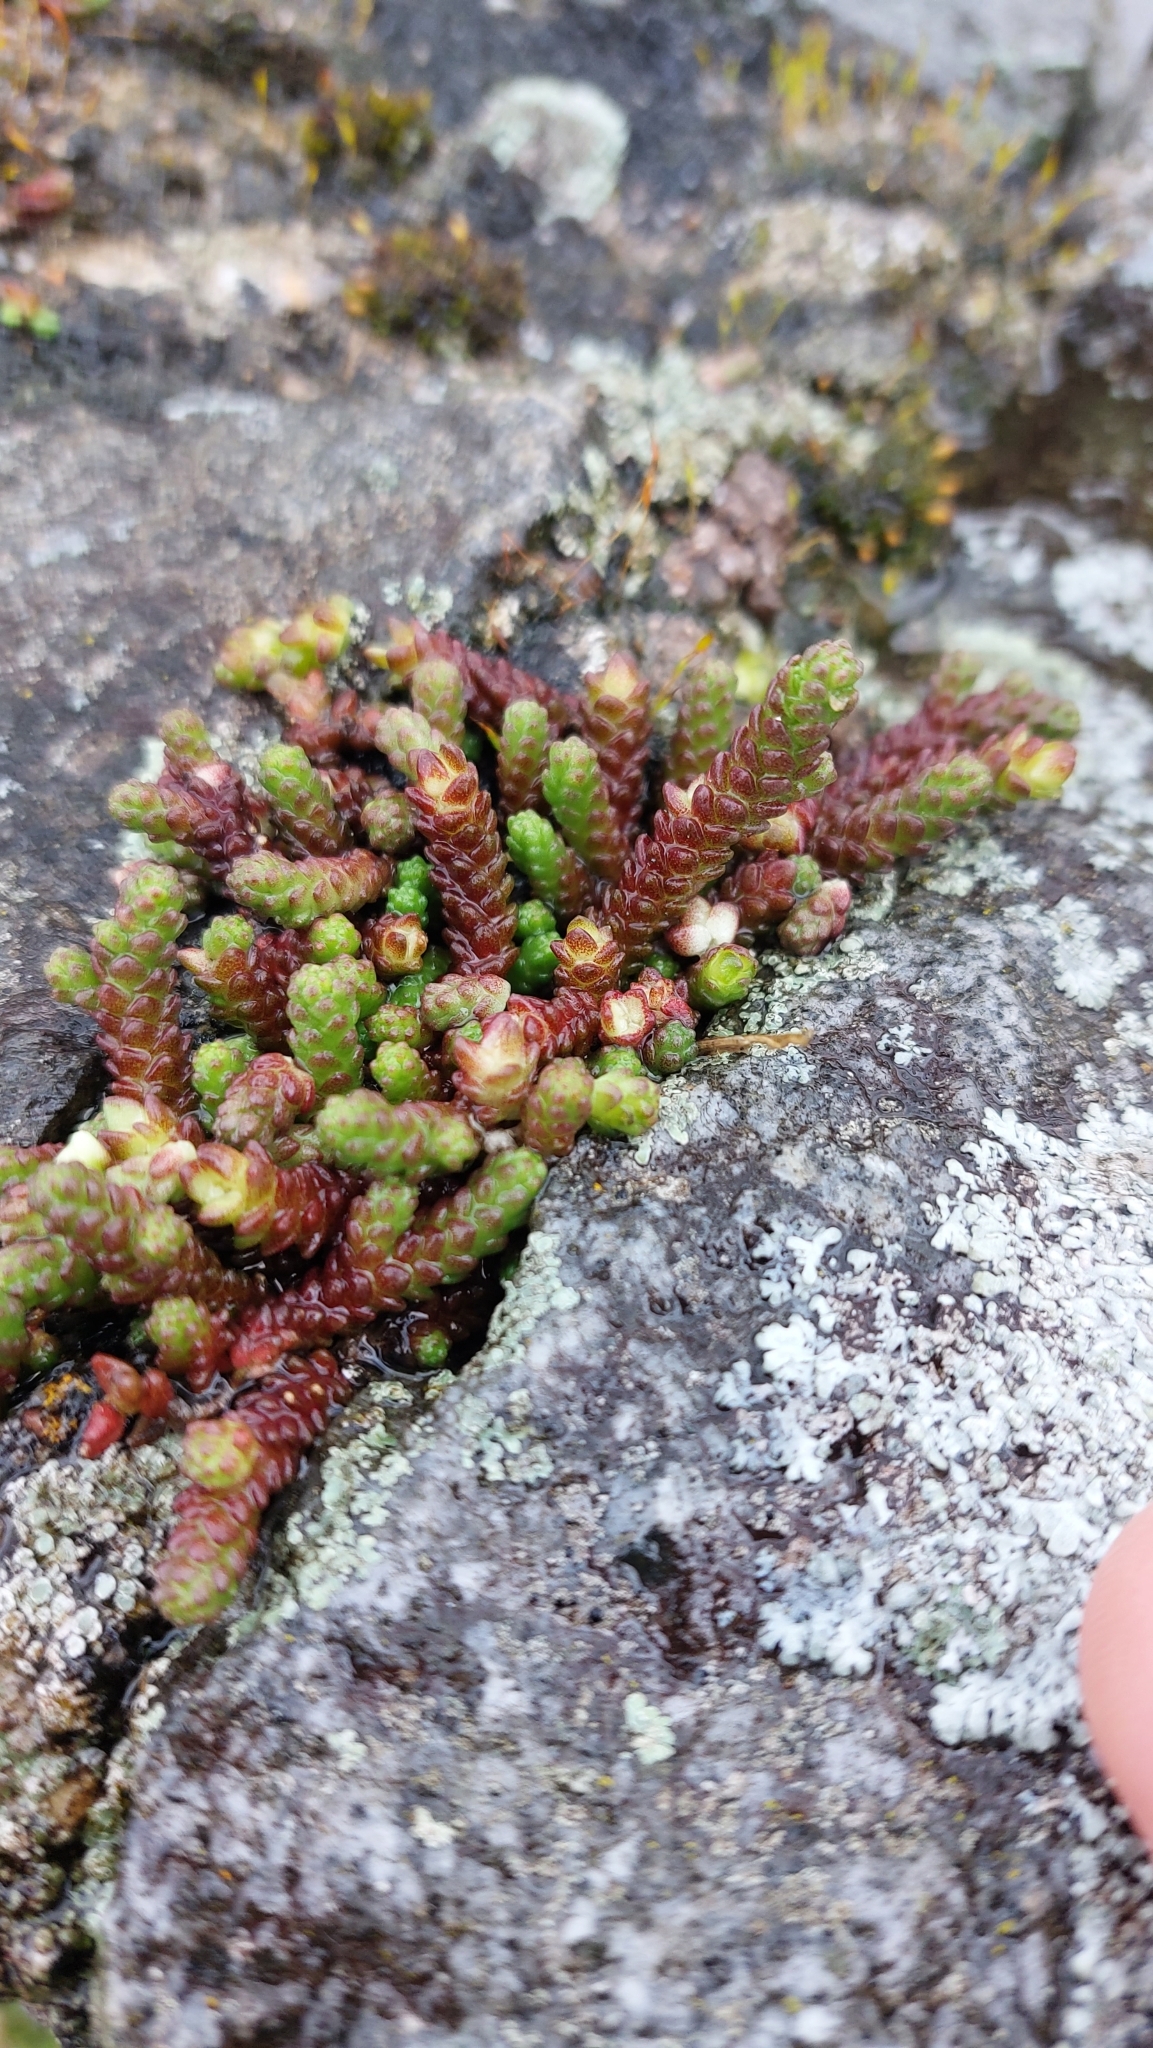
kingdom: Plantae
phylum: Tracheophyta
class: Magnoliopsida
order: Saxifragales
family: Crassulaceae
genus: Sedum
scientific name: Sedum acre
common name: Biting stonecrop
